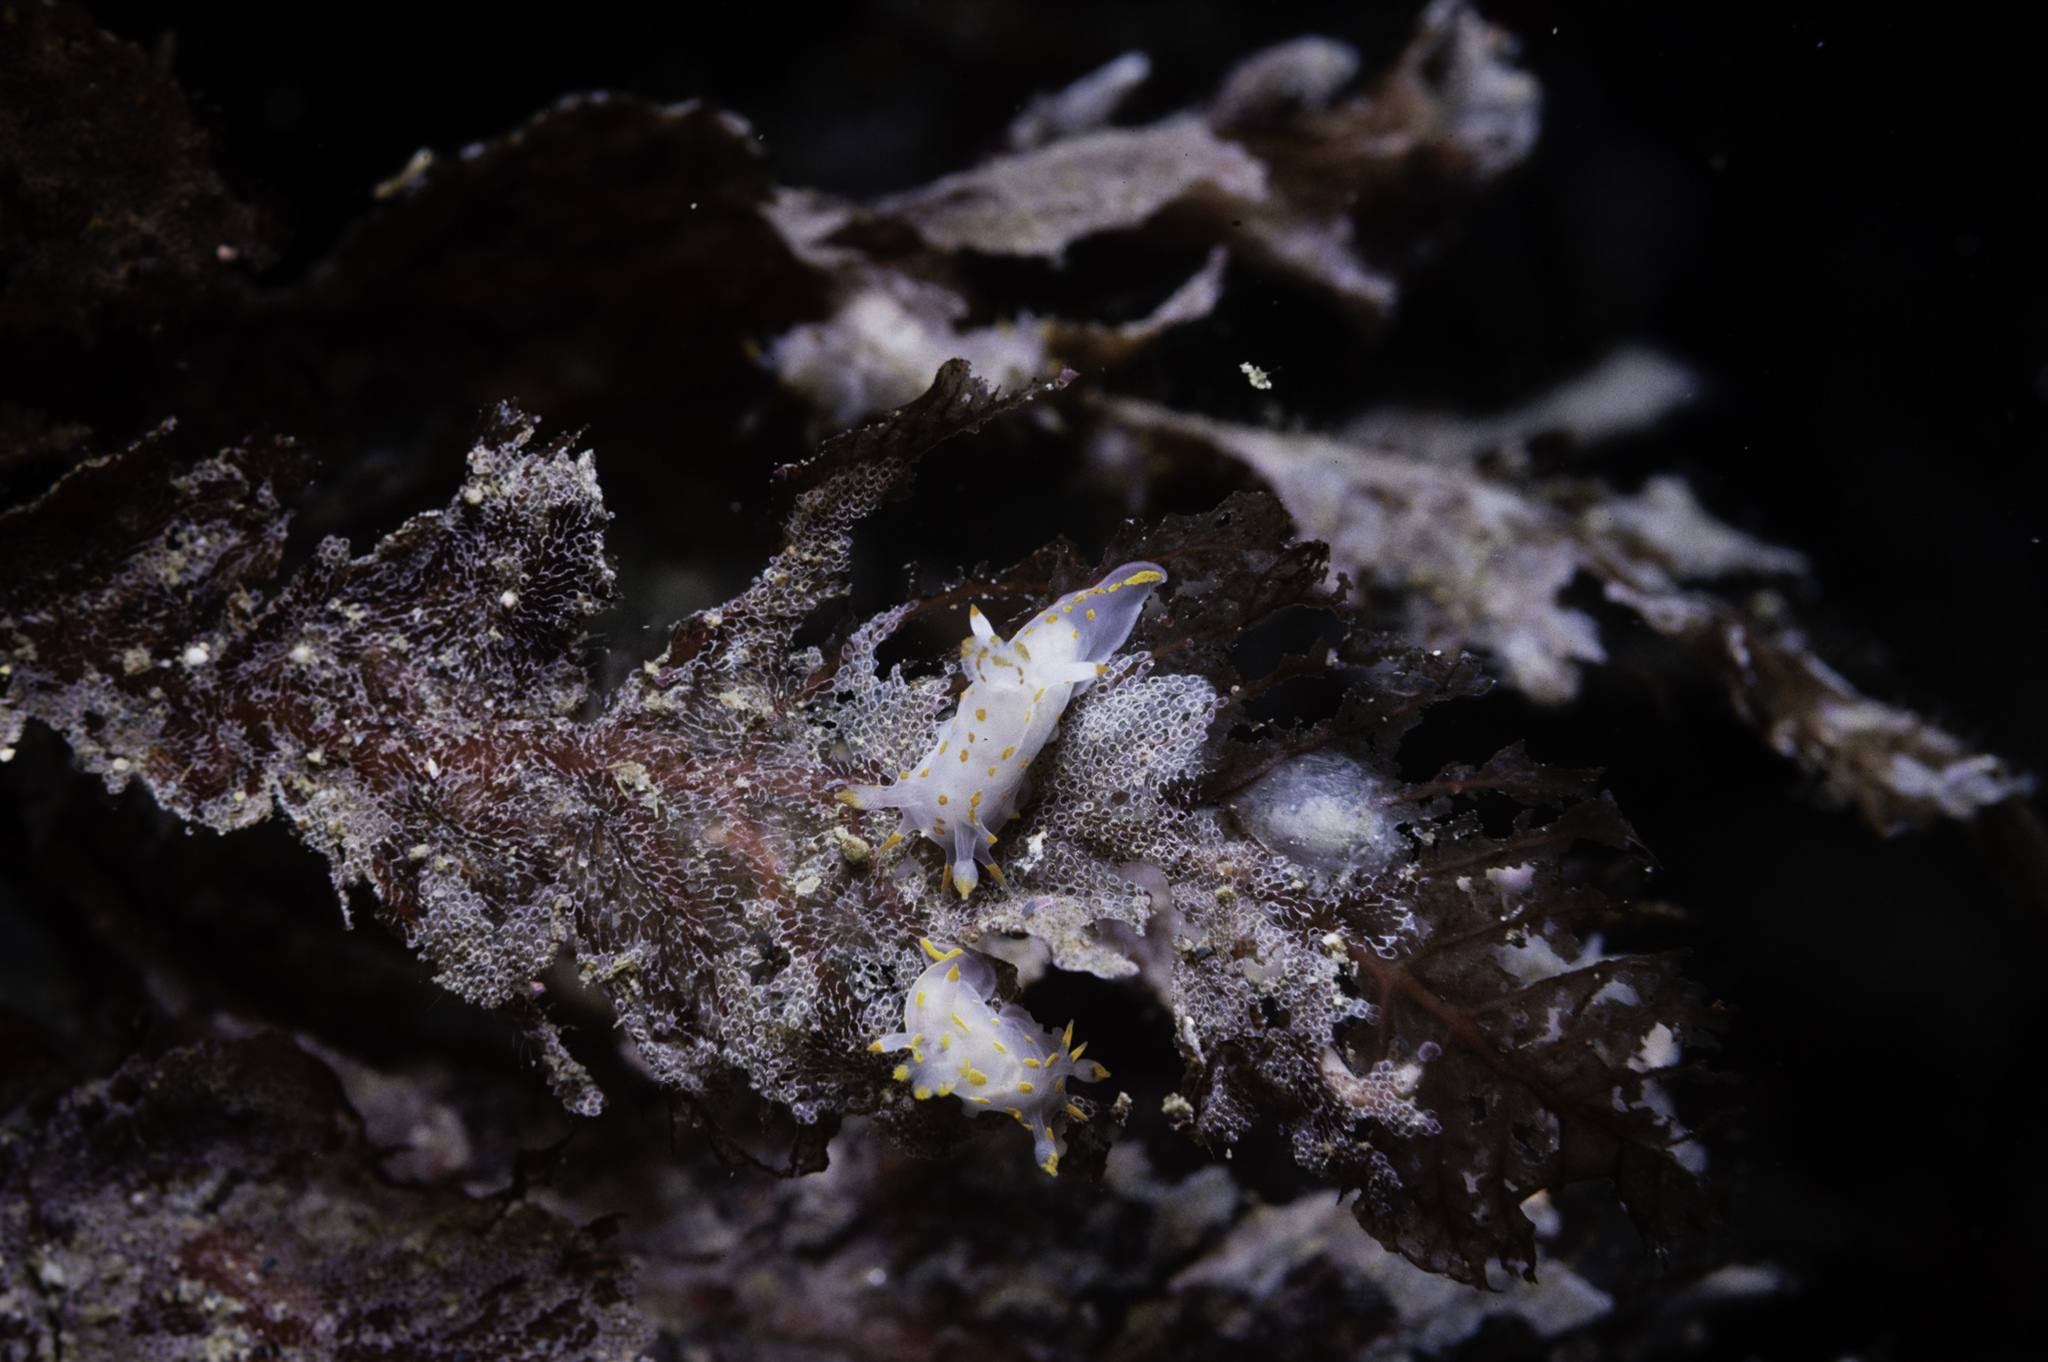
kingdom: Animalia
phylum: Mollusca
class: Gastropoda
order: Nudibranchia
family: Polyceridae
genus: Polycera
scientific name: Polycera norvegica
